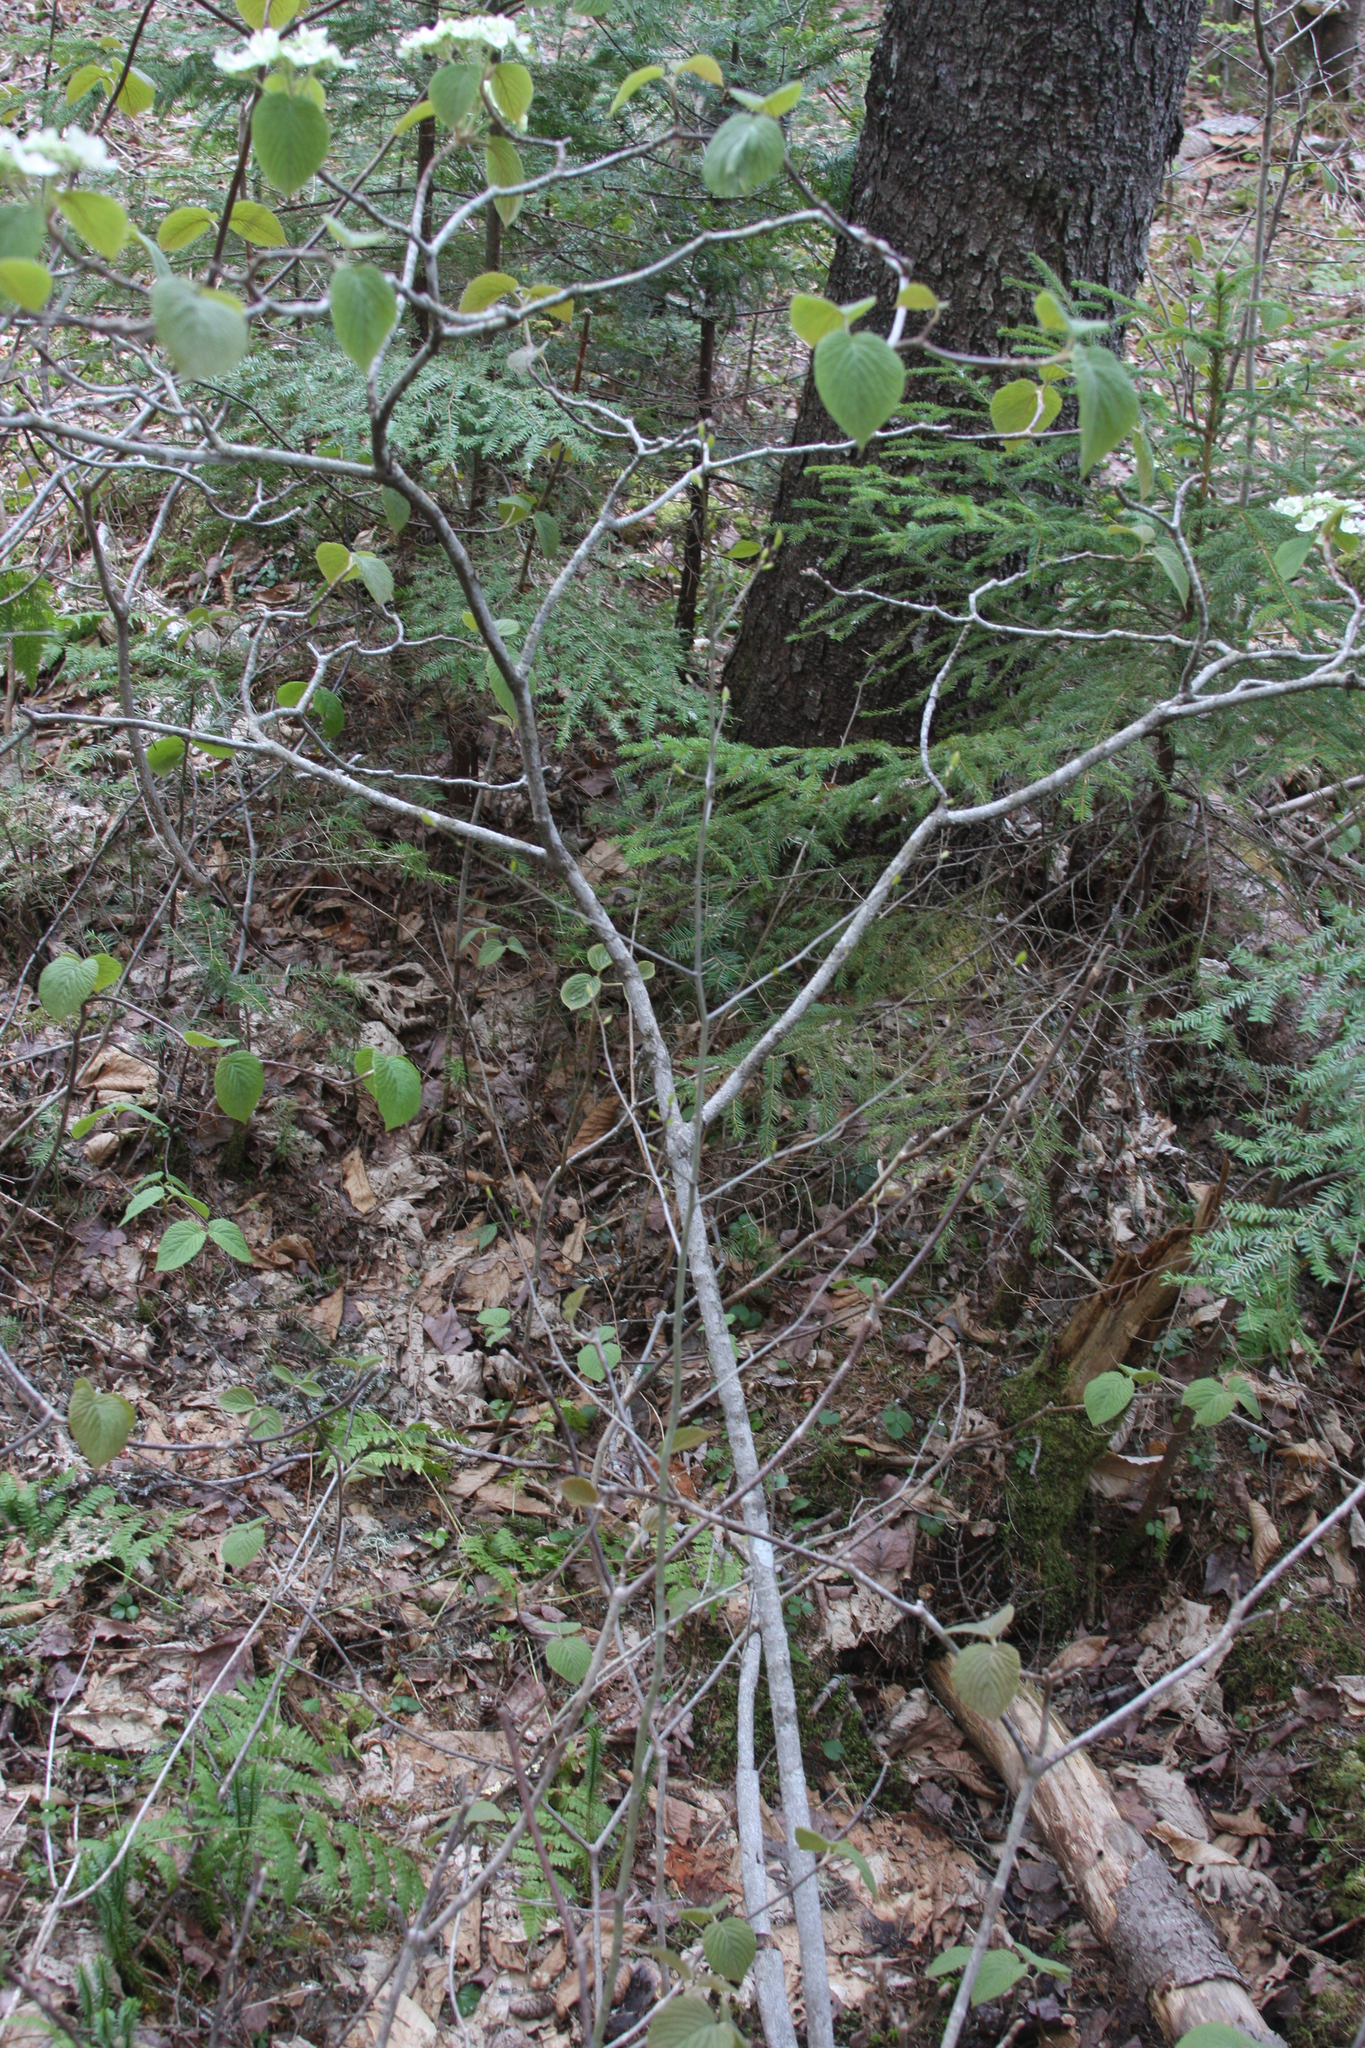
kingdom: Plantae
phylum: Tracheophyta
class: Magnoliopsida
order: Dipsacales
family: Viburnaceae
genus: Viburnum
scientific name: Viburnum lantanoides
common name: Hobblebush
